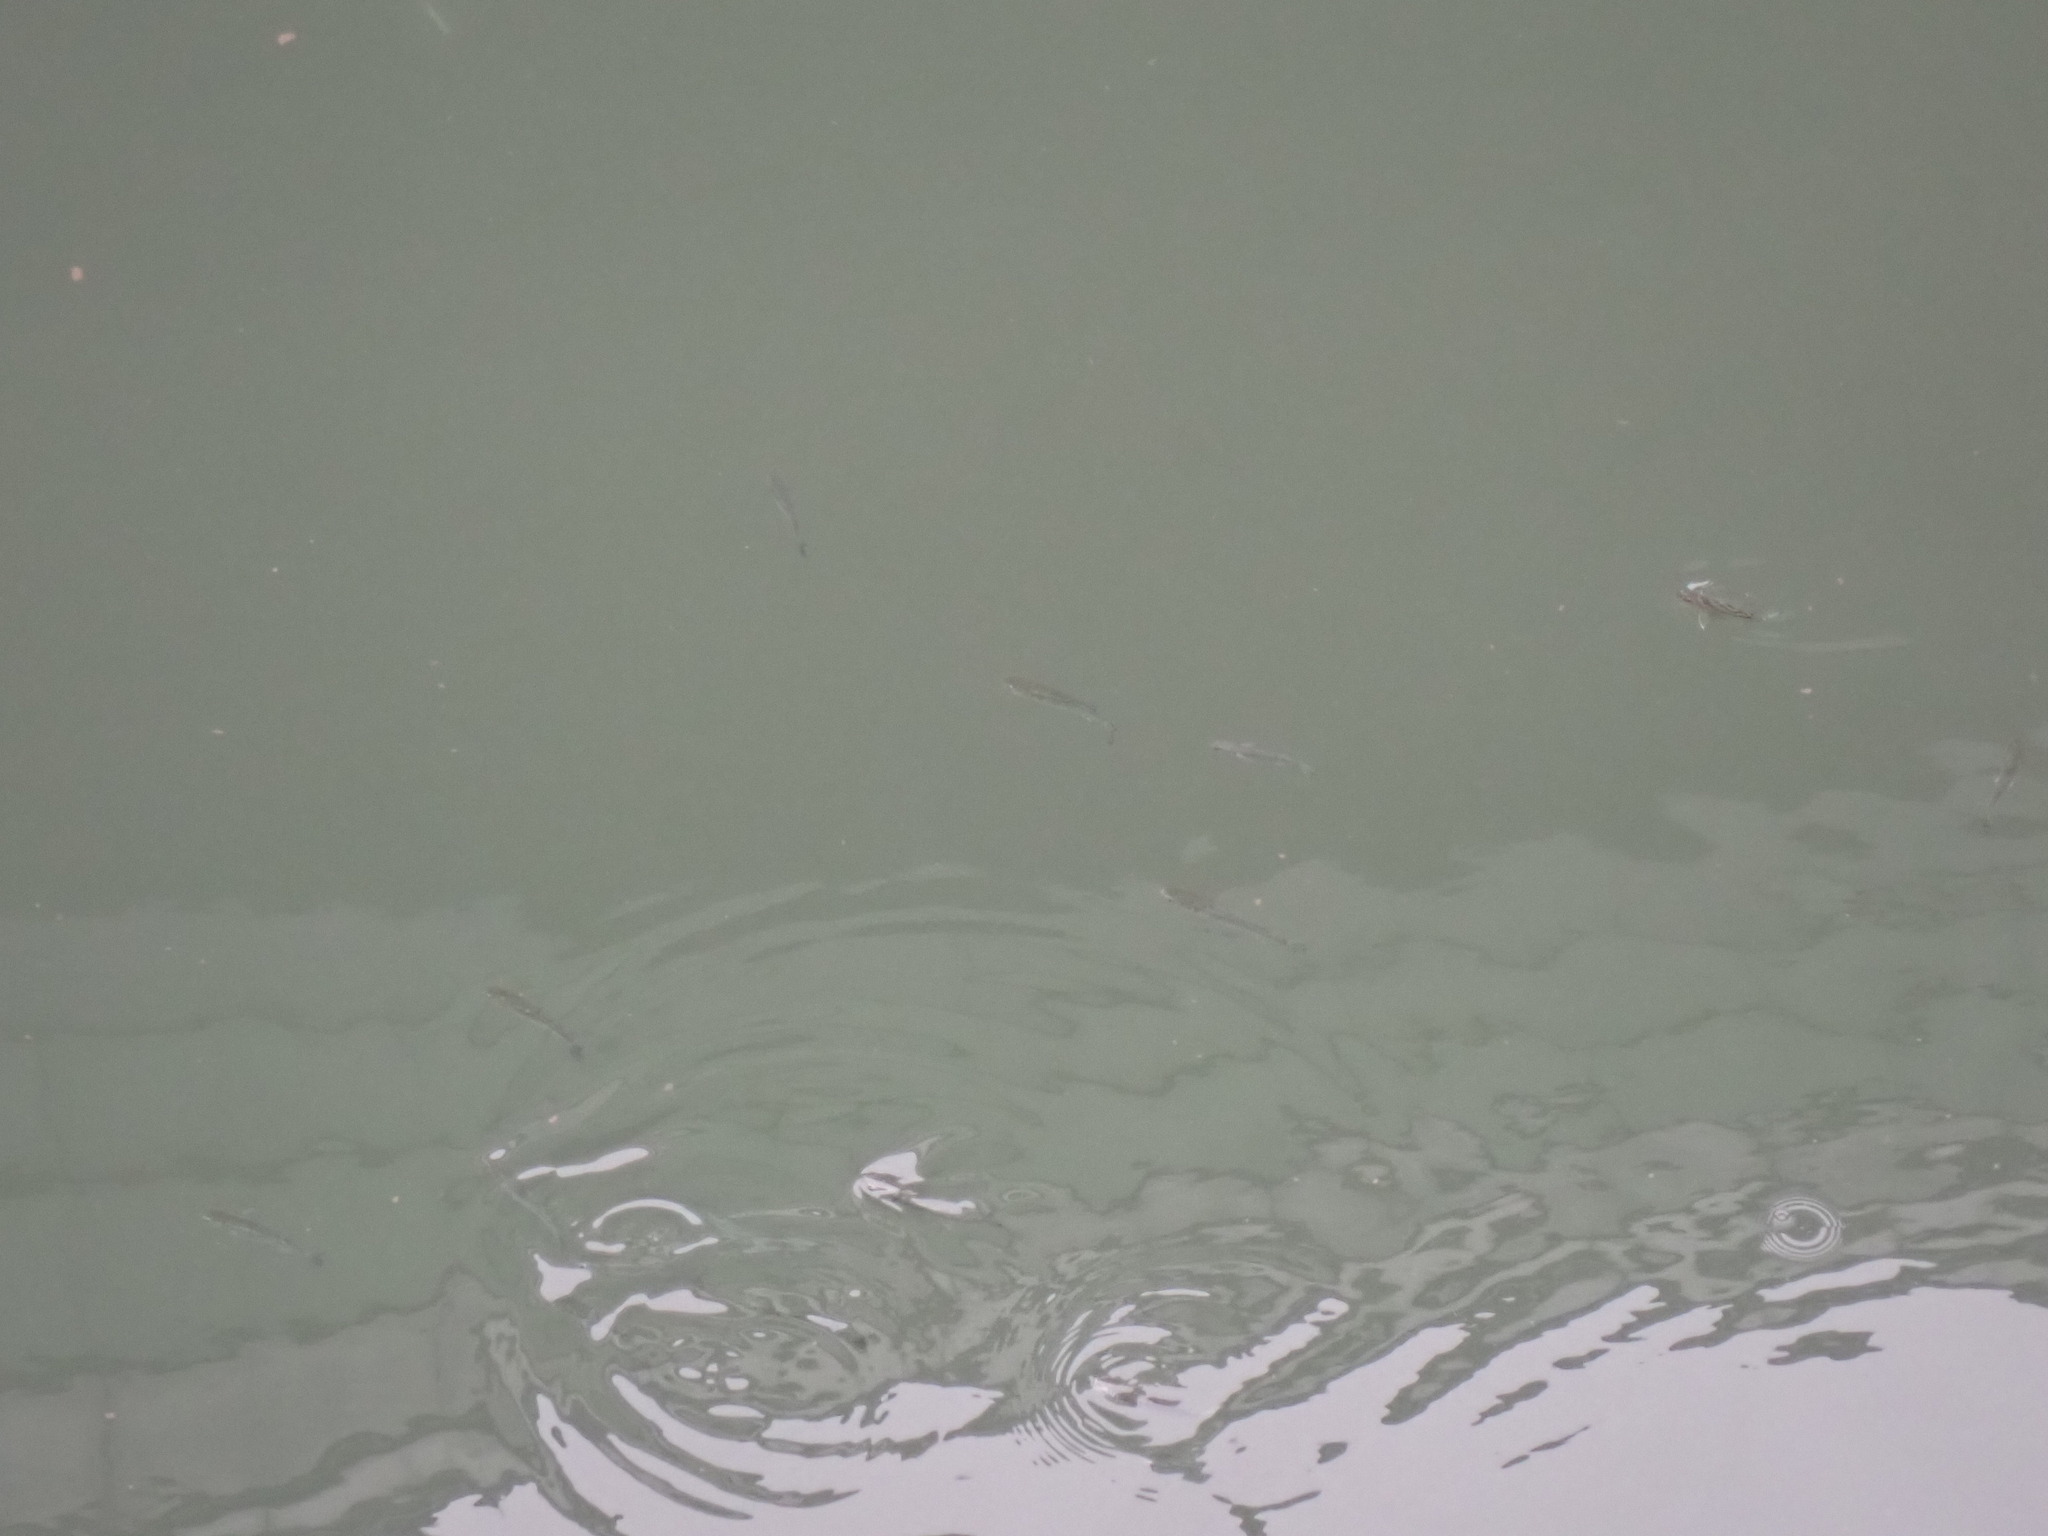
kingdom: Animalia
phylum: Chordata
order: Perciformes
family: Terapontidae
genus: Terapon
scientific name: Terapon jarbua
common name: Jarbua terapon
